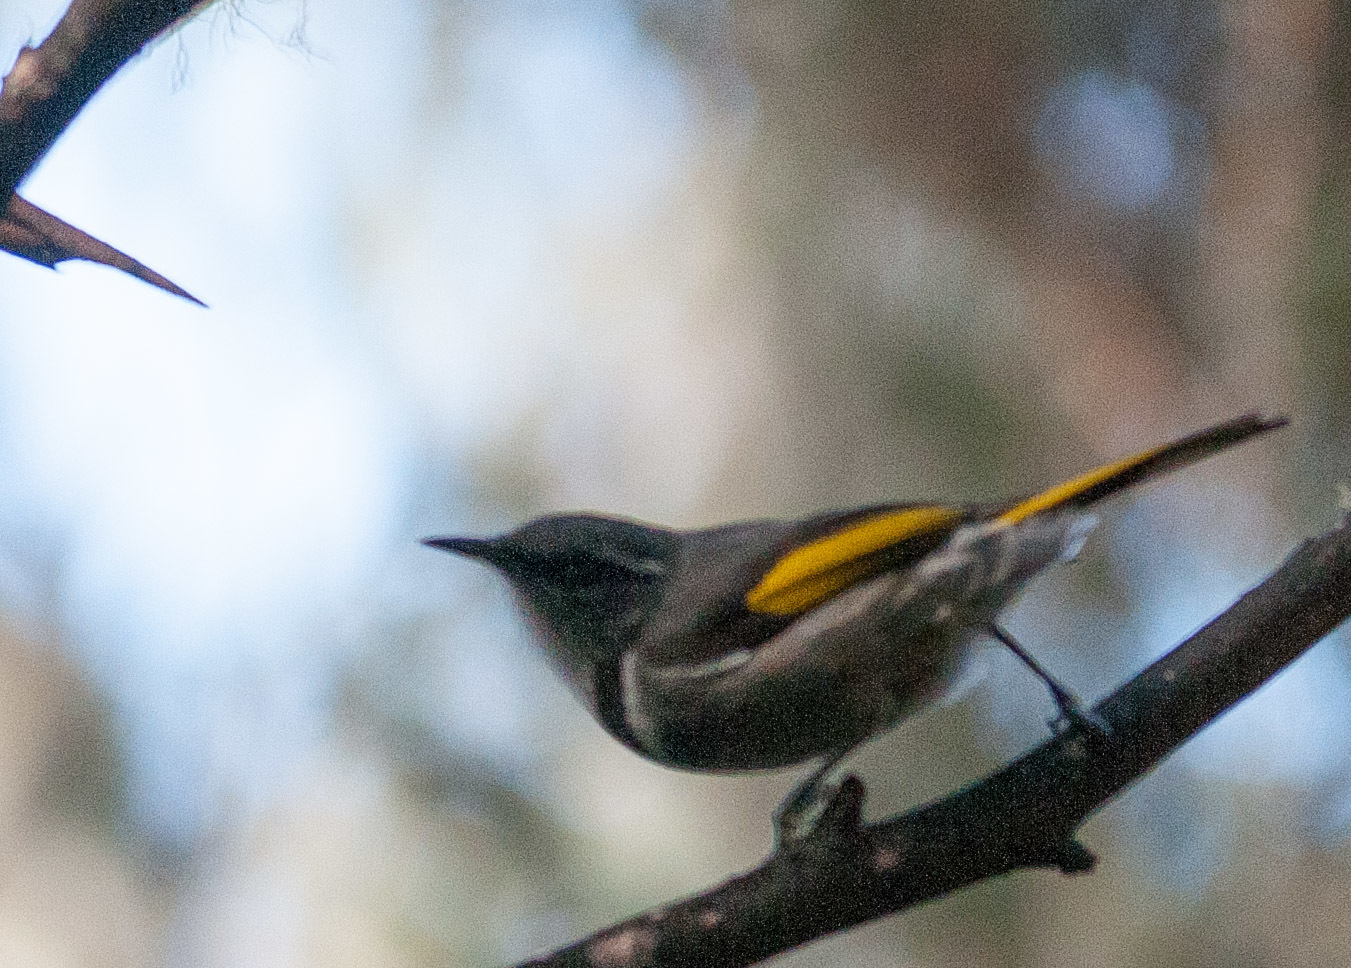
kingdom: Animalia
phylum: Chordata
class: Aves
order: Passeriformes
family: Meliphagidae
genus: Phylidonyris
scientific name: Phylidonyris pyrrhopterus
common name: Crescent honeyeater
